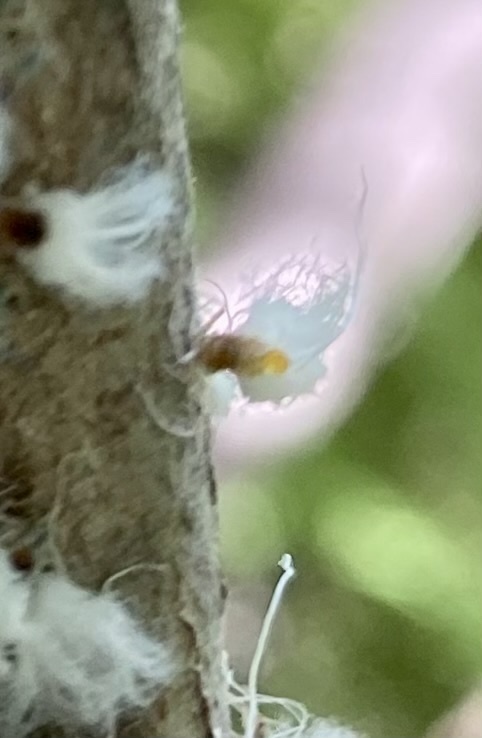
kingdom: Animalia
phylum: Arthropoda
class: Insecta
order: Hemiptera
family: Aphididae
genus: Grylloprociphilus
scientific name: Grylloprociphilus imbricator
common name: Beech blight aphid
